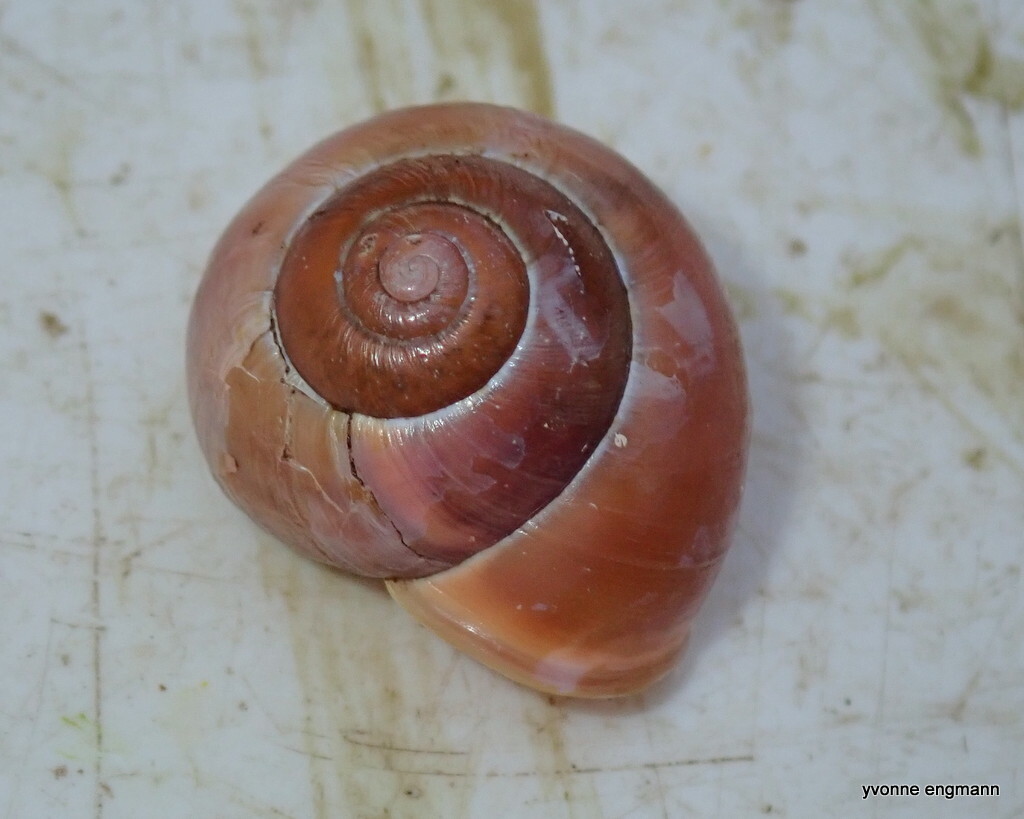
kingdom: Animalia
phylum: Mollusca
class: Gastropoda
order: Stylommatophora
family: Helicidae
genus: Cepaea
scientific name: Cepaea hortensis
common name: White-lip gardensnail
